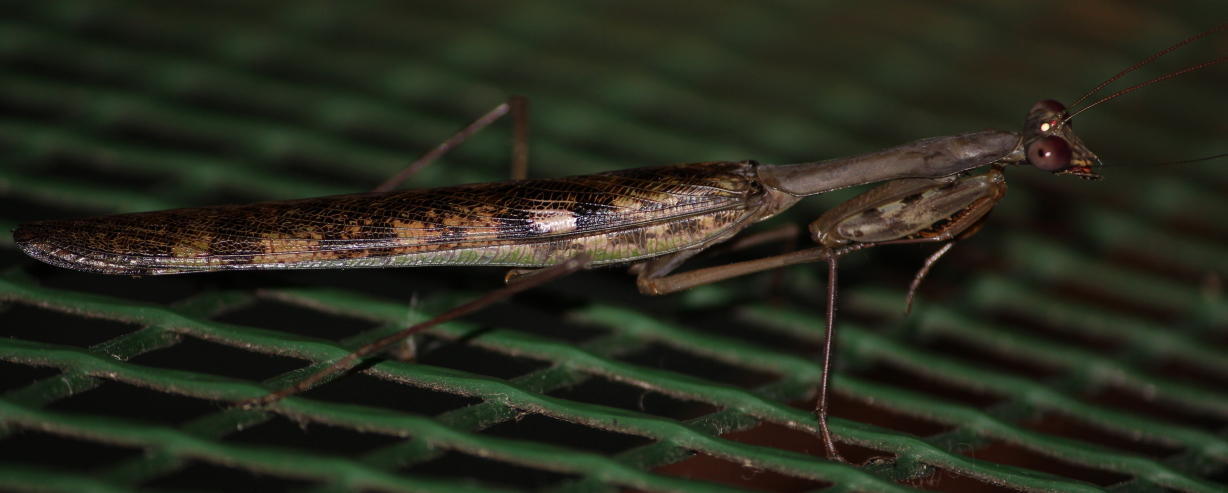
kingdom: Animalia
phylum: Arthropoda
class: Insecta
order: Mantodea
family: Mantidae
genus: Polyspilota
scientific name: Polyspilota aeruginosa
